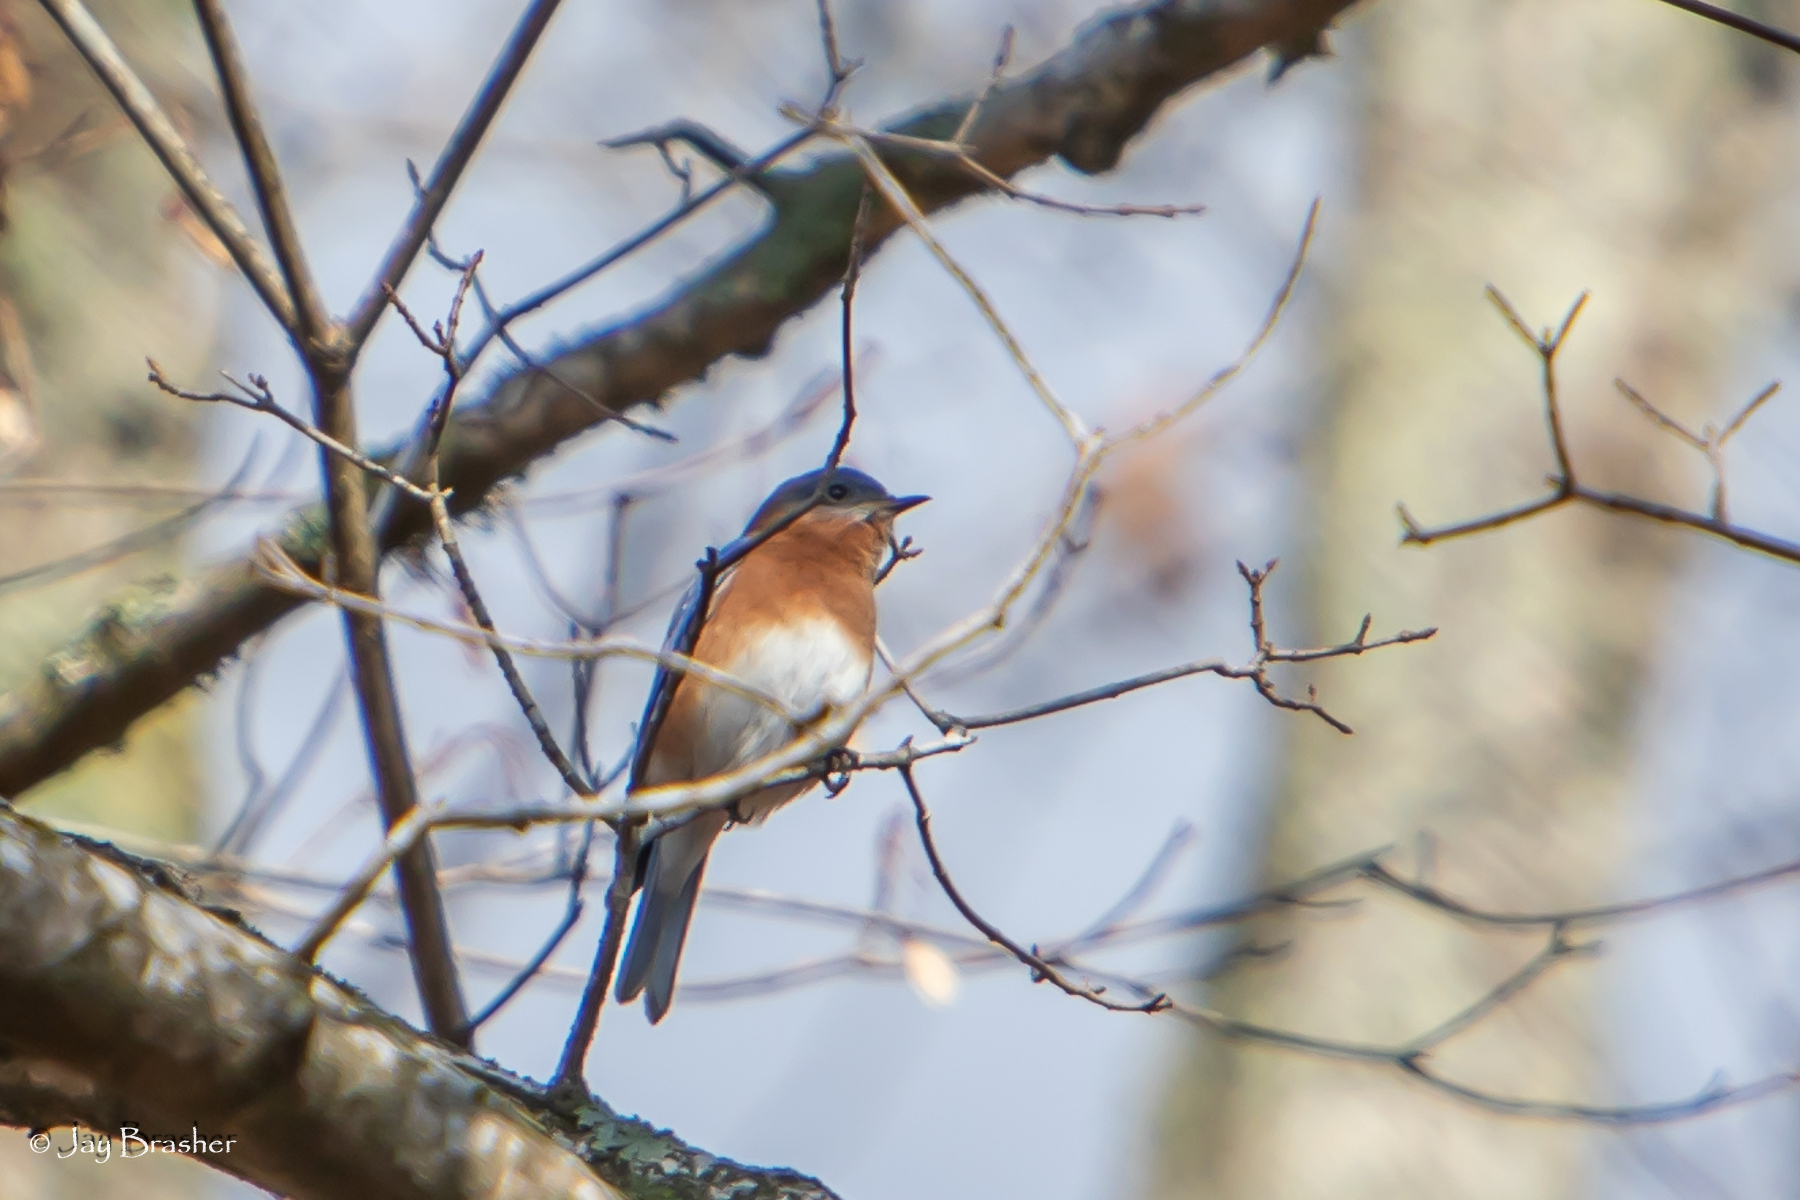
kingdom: Animalia
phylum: Chordata
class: Aves
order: Passeriformes
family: Turdidae
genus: Sialia
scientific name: Sialia sialis
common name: Eastern bluebird
